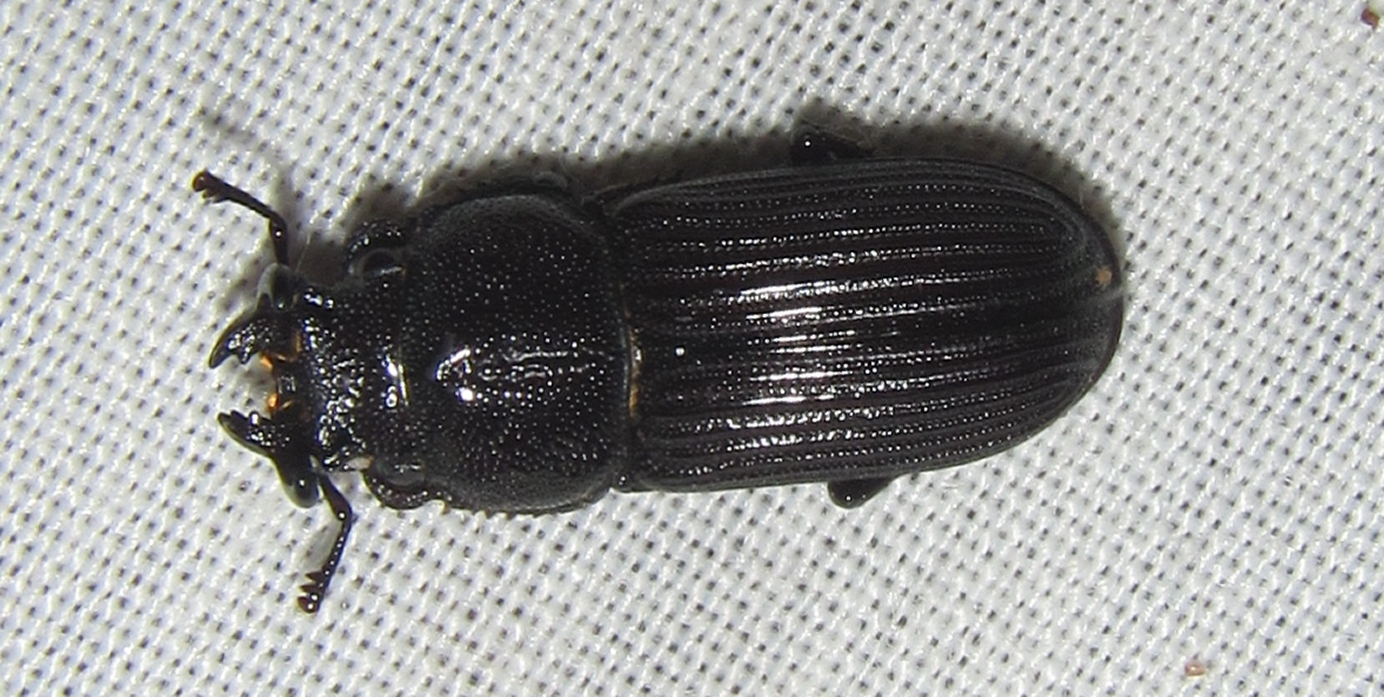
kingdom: Animalia
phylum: Arthropoda
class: Insecta
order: Coleoptera
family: Lucanidae
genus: Nigidius
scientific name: Nigidius delegorguei
